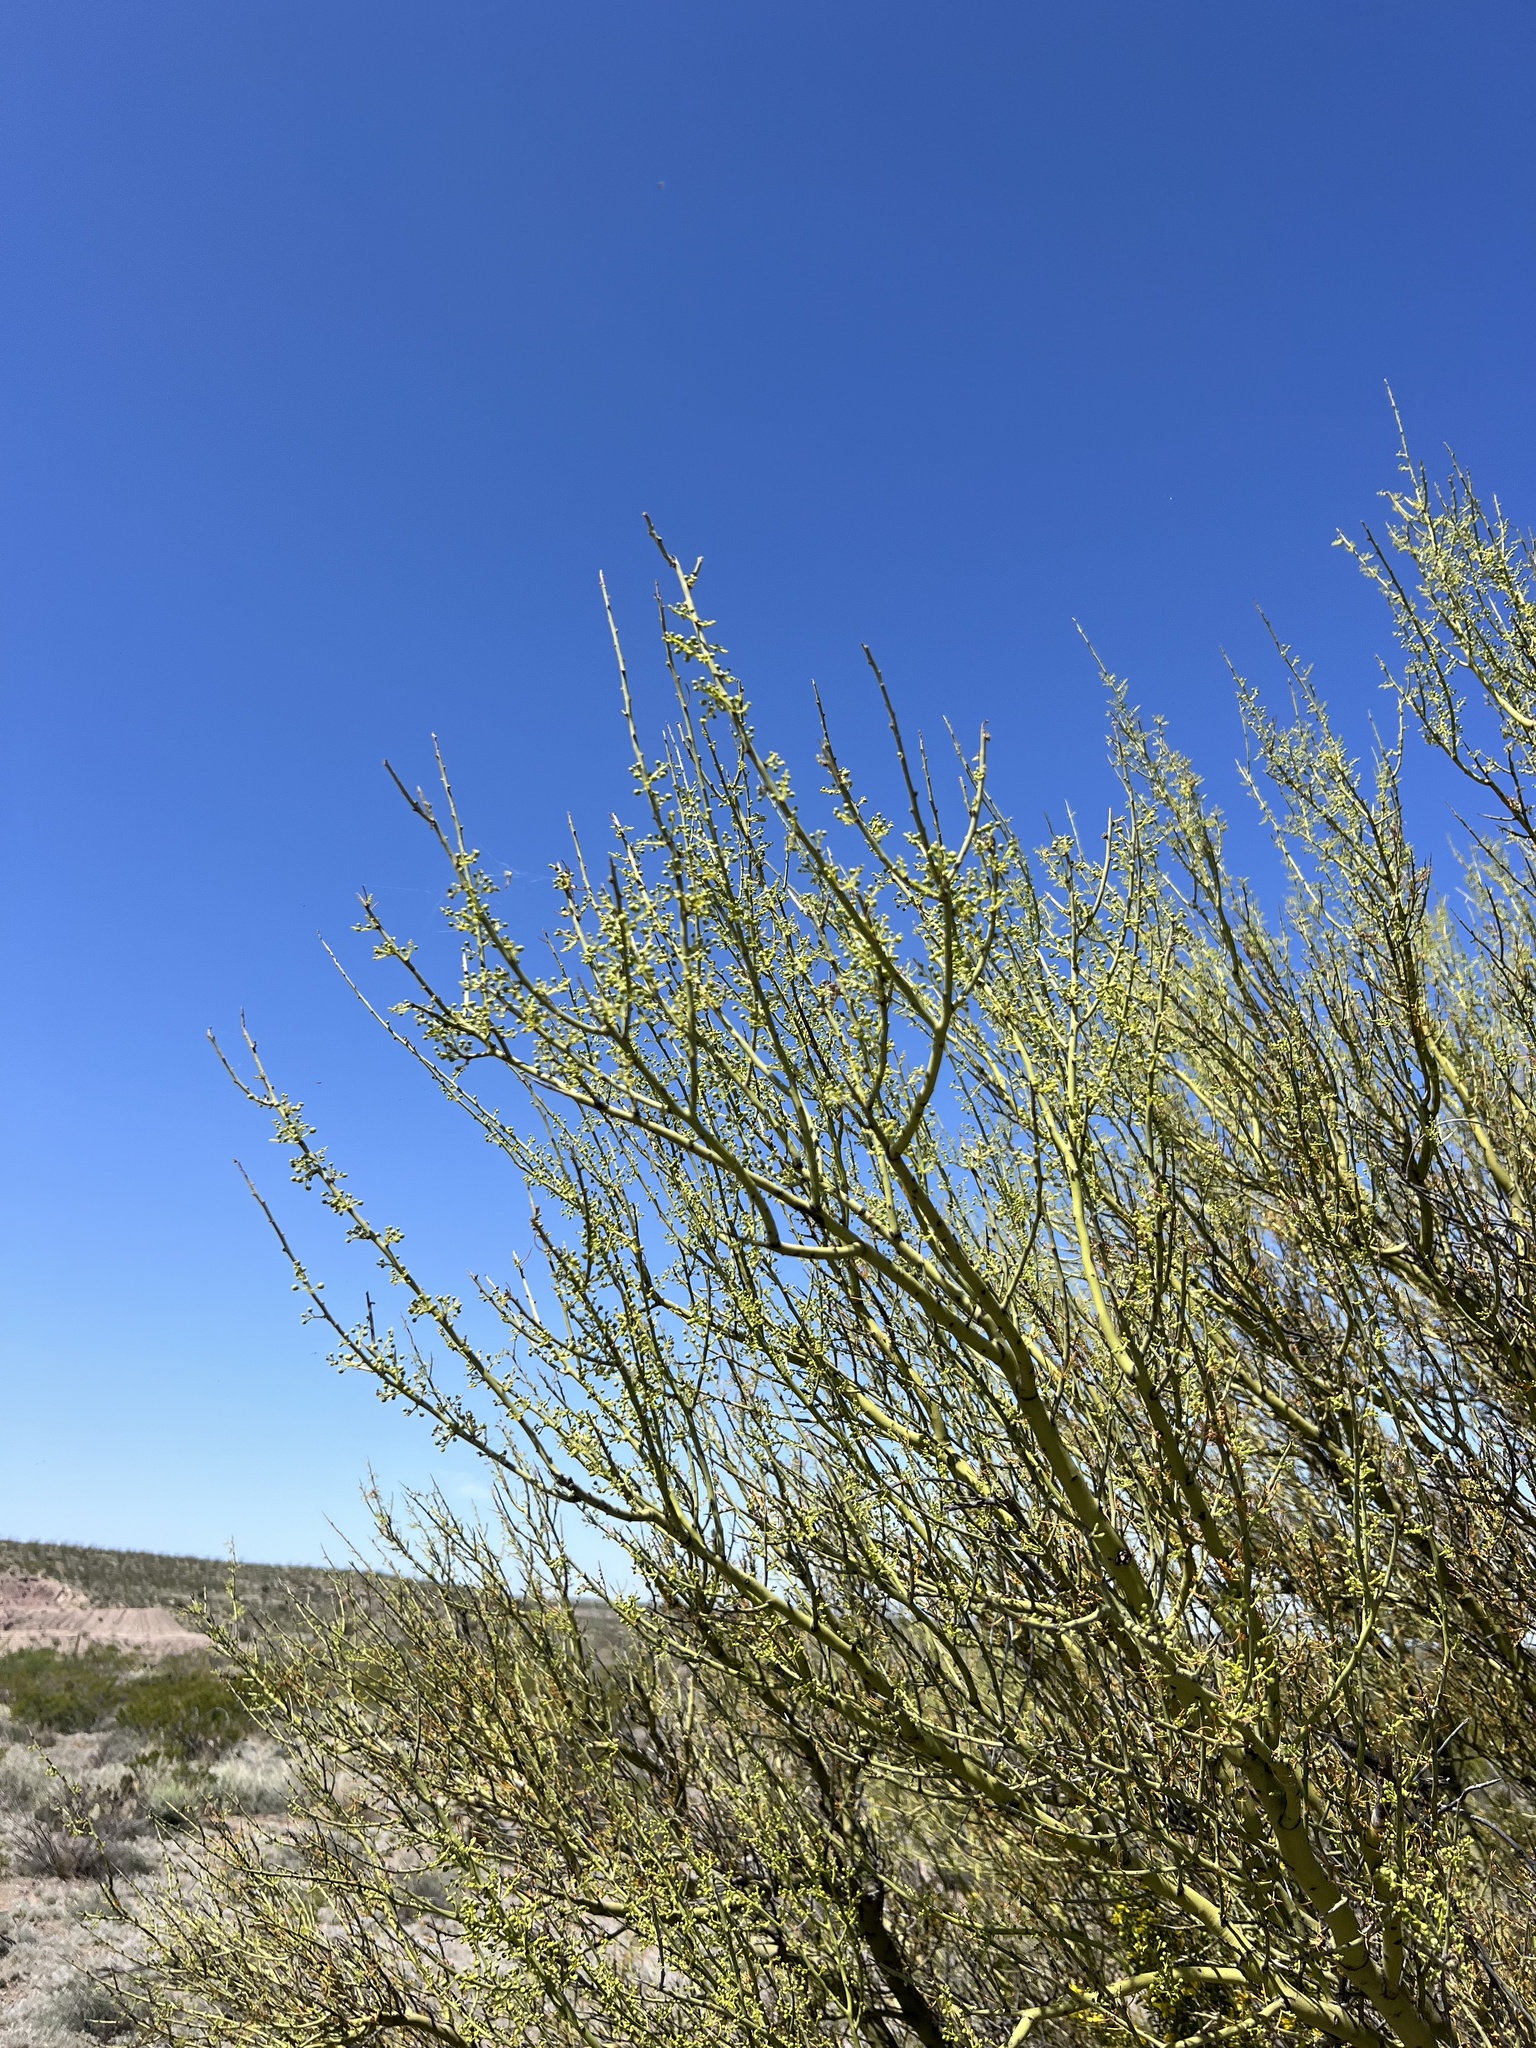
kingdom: Plantae
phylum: Tracheophyta
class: Magnoliopsida
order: Fabales
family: Fabaceae
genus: Parkinsonia
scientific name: Parkinsonia microphylla
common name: Yellow paloverde
